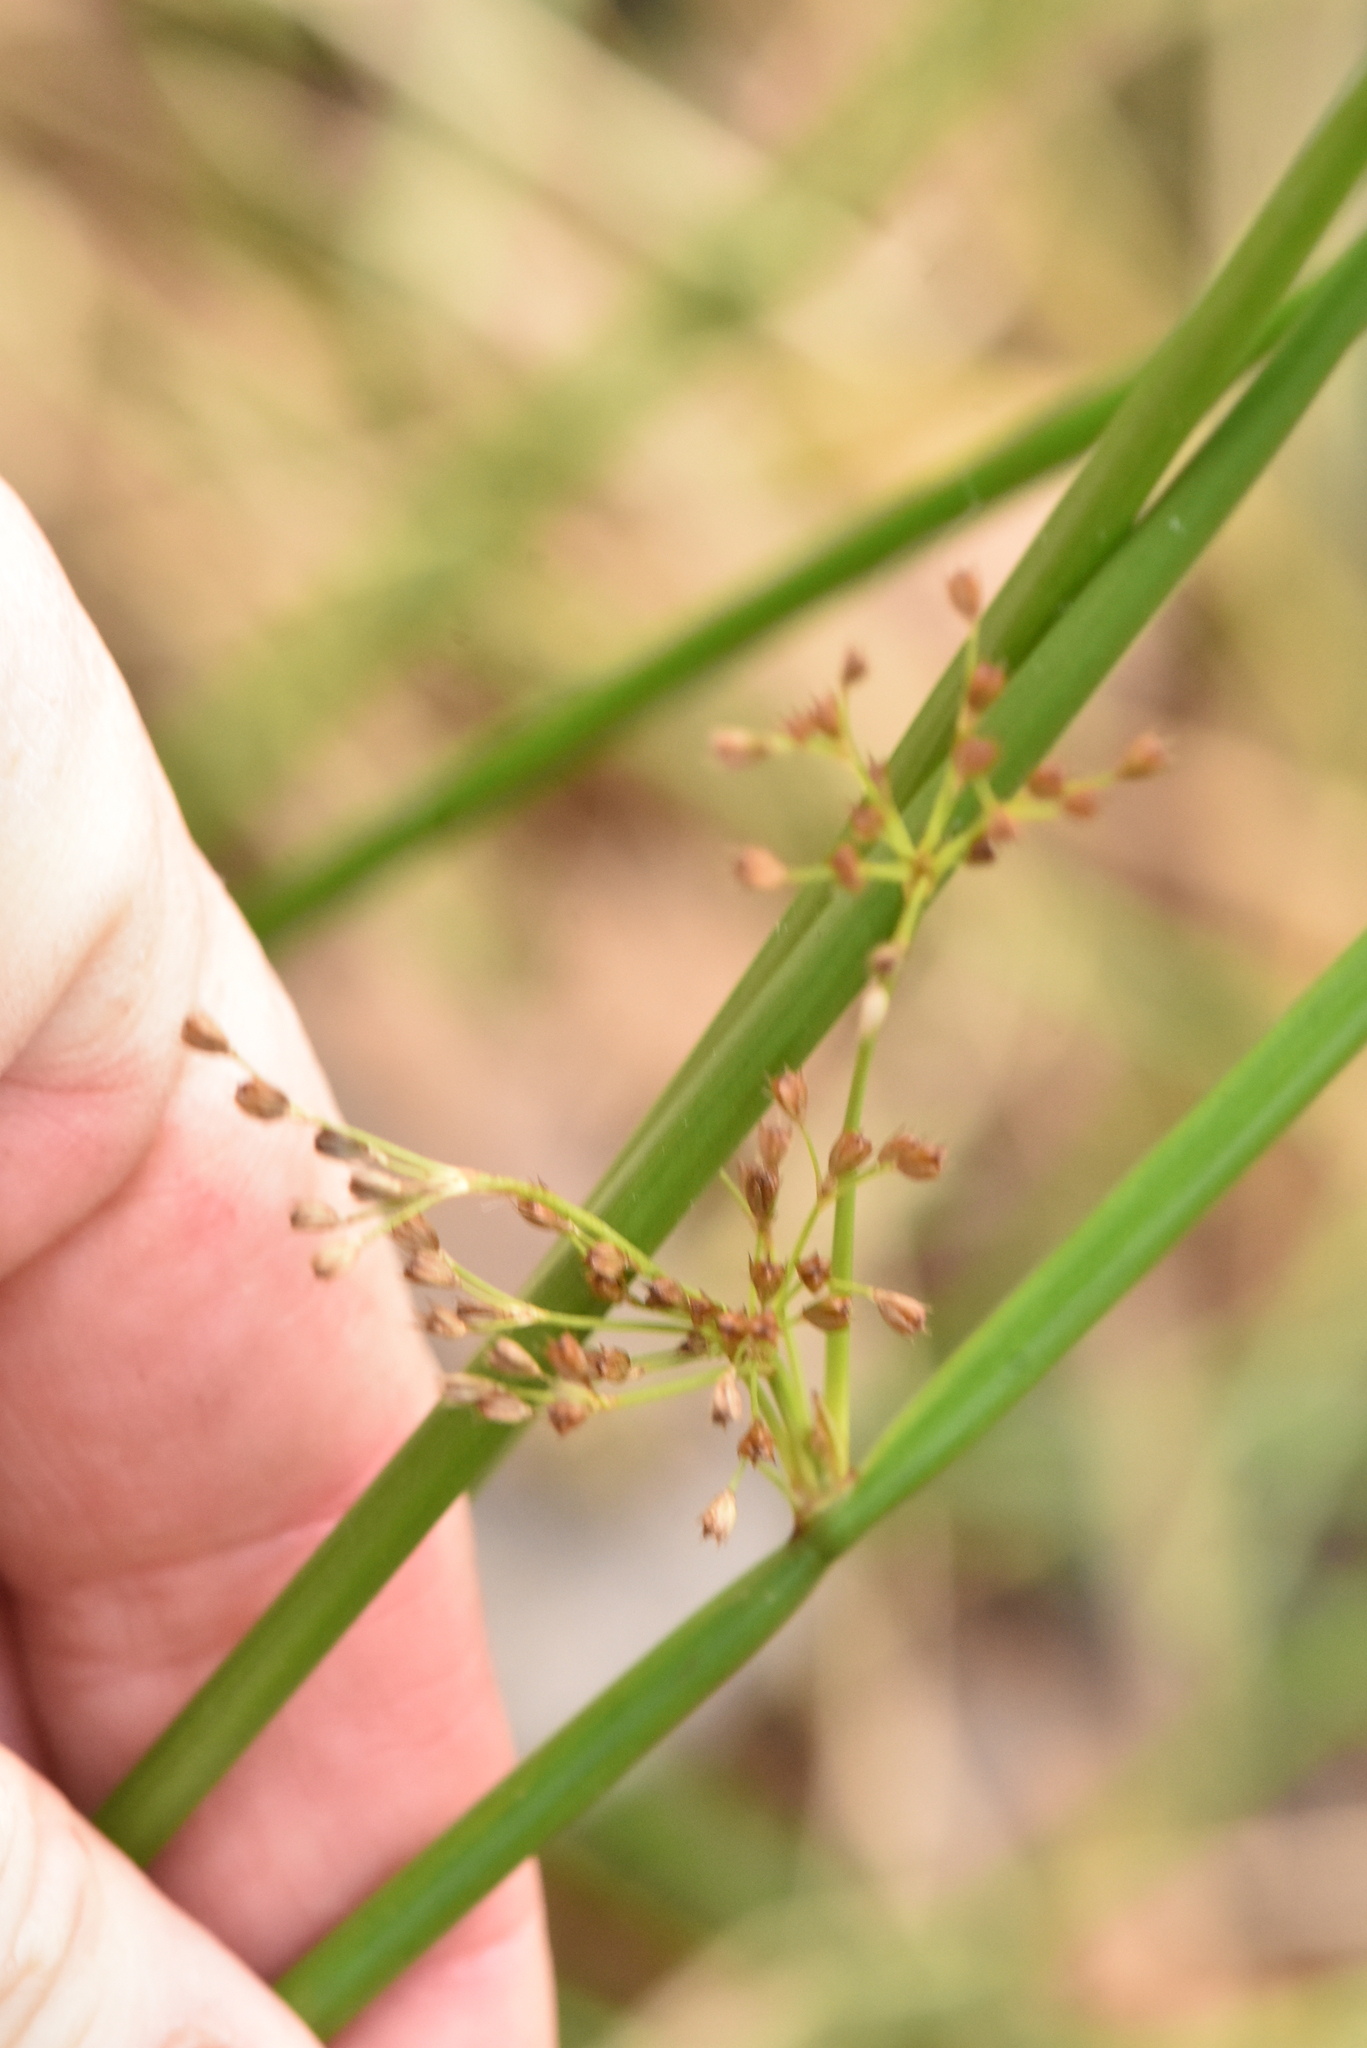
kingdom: Plantae
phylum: Tracheophyta
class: Liliopsida
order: Poales
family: Juncaceae
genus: Juncus
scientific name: Juncus effusus
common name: Soft rush
